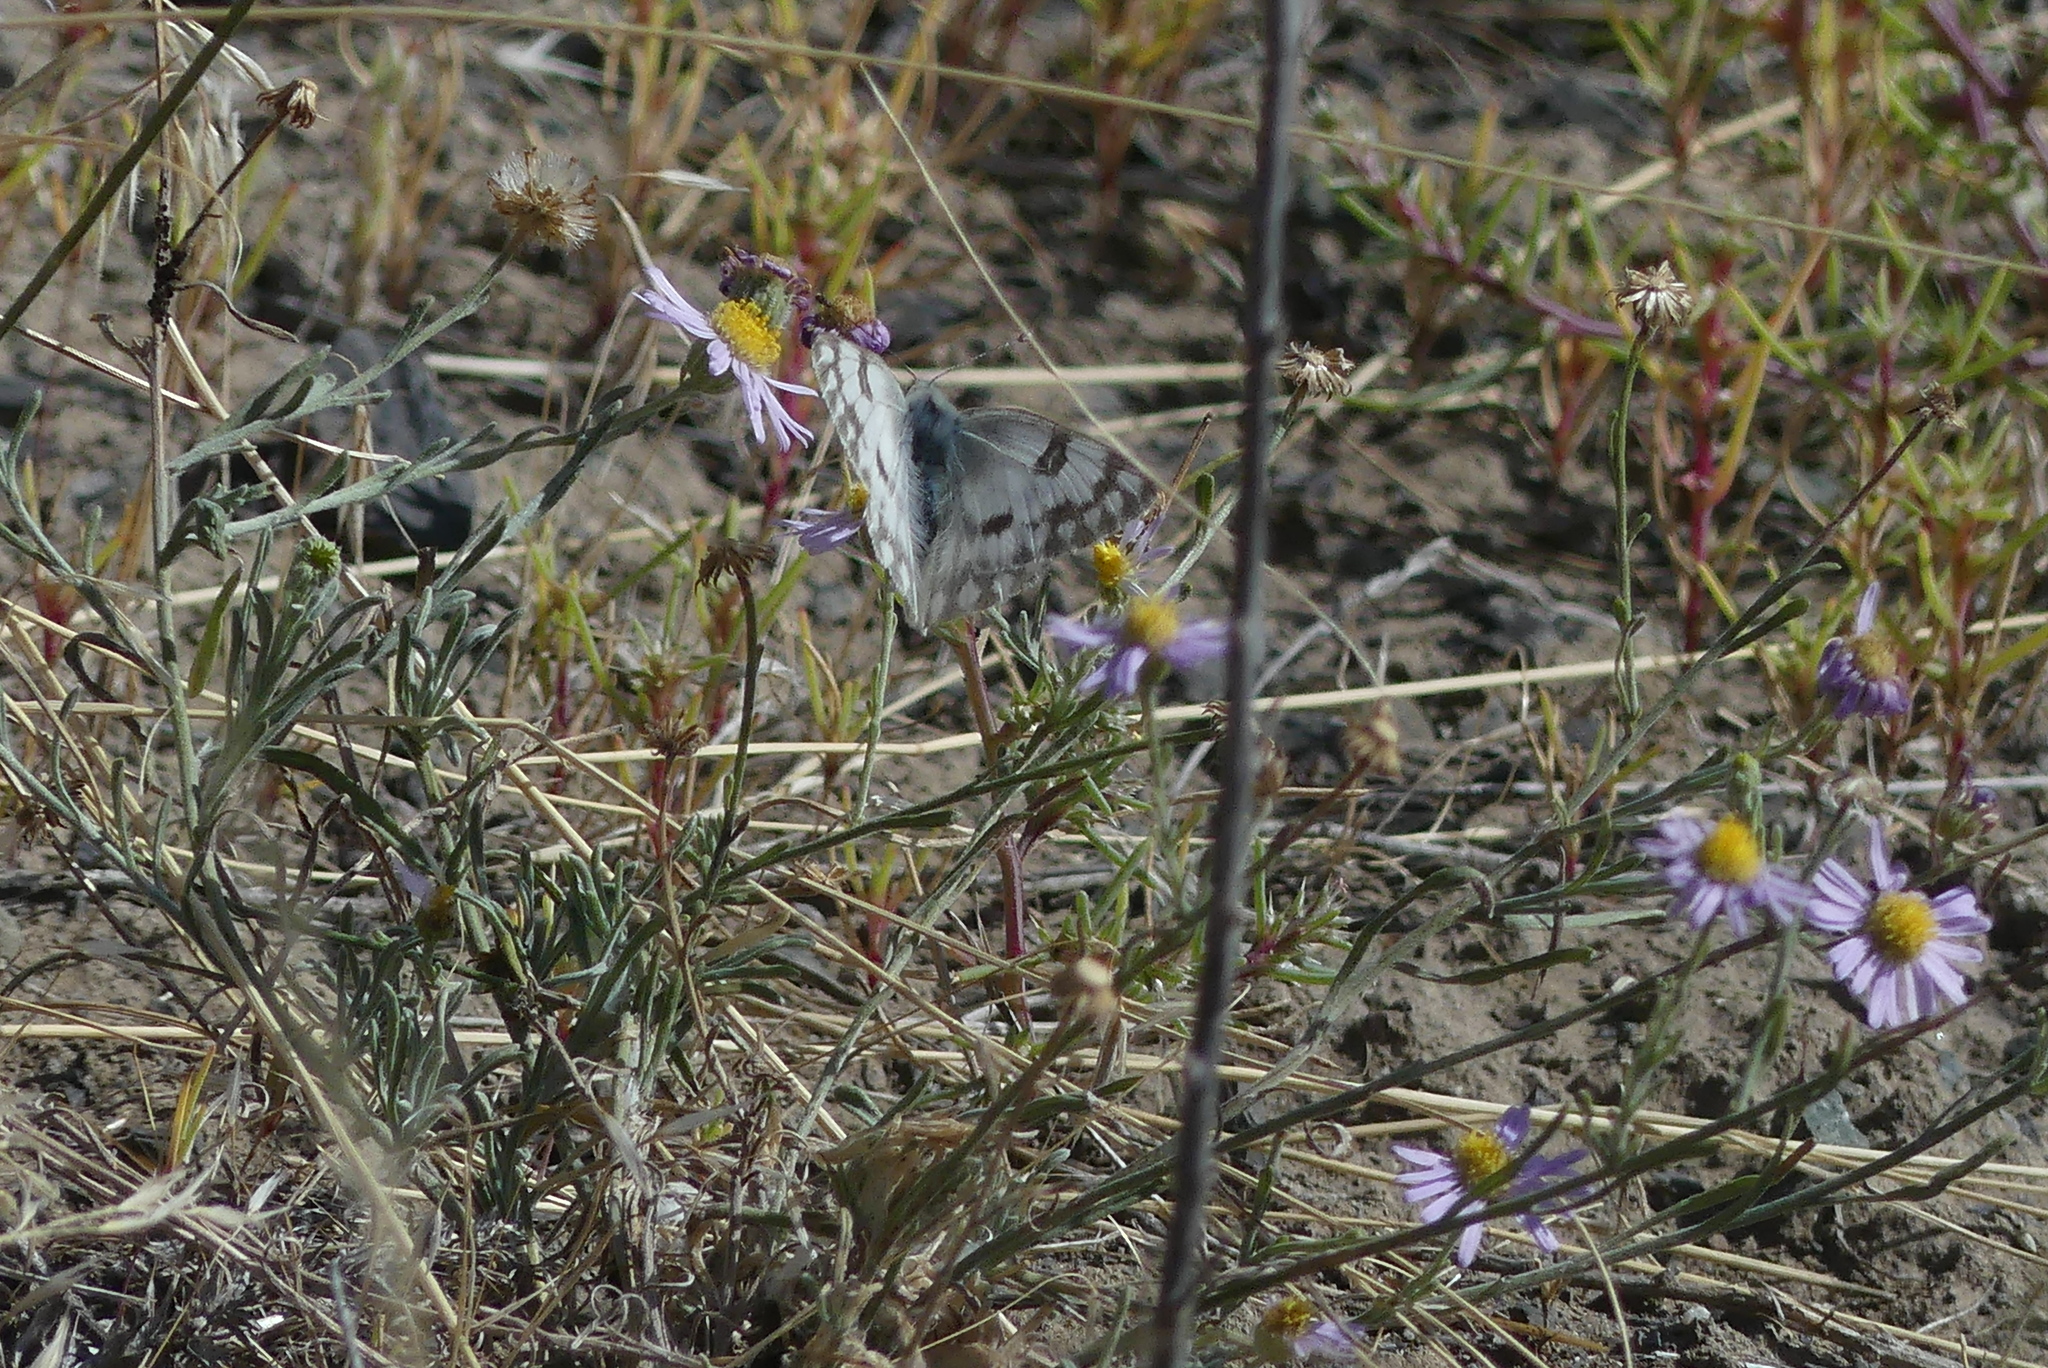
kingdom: Animalia
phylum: Arthropoda
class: Insecta
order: Lepidoptera
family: Pieridae
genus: Pontia
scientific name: Pontia occidentalis
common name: Western white
